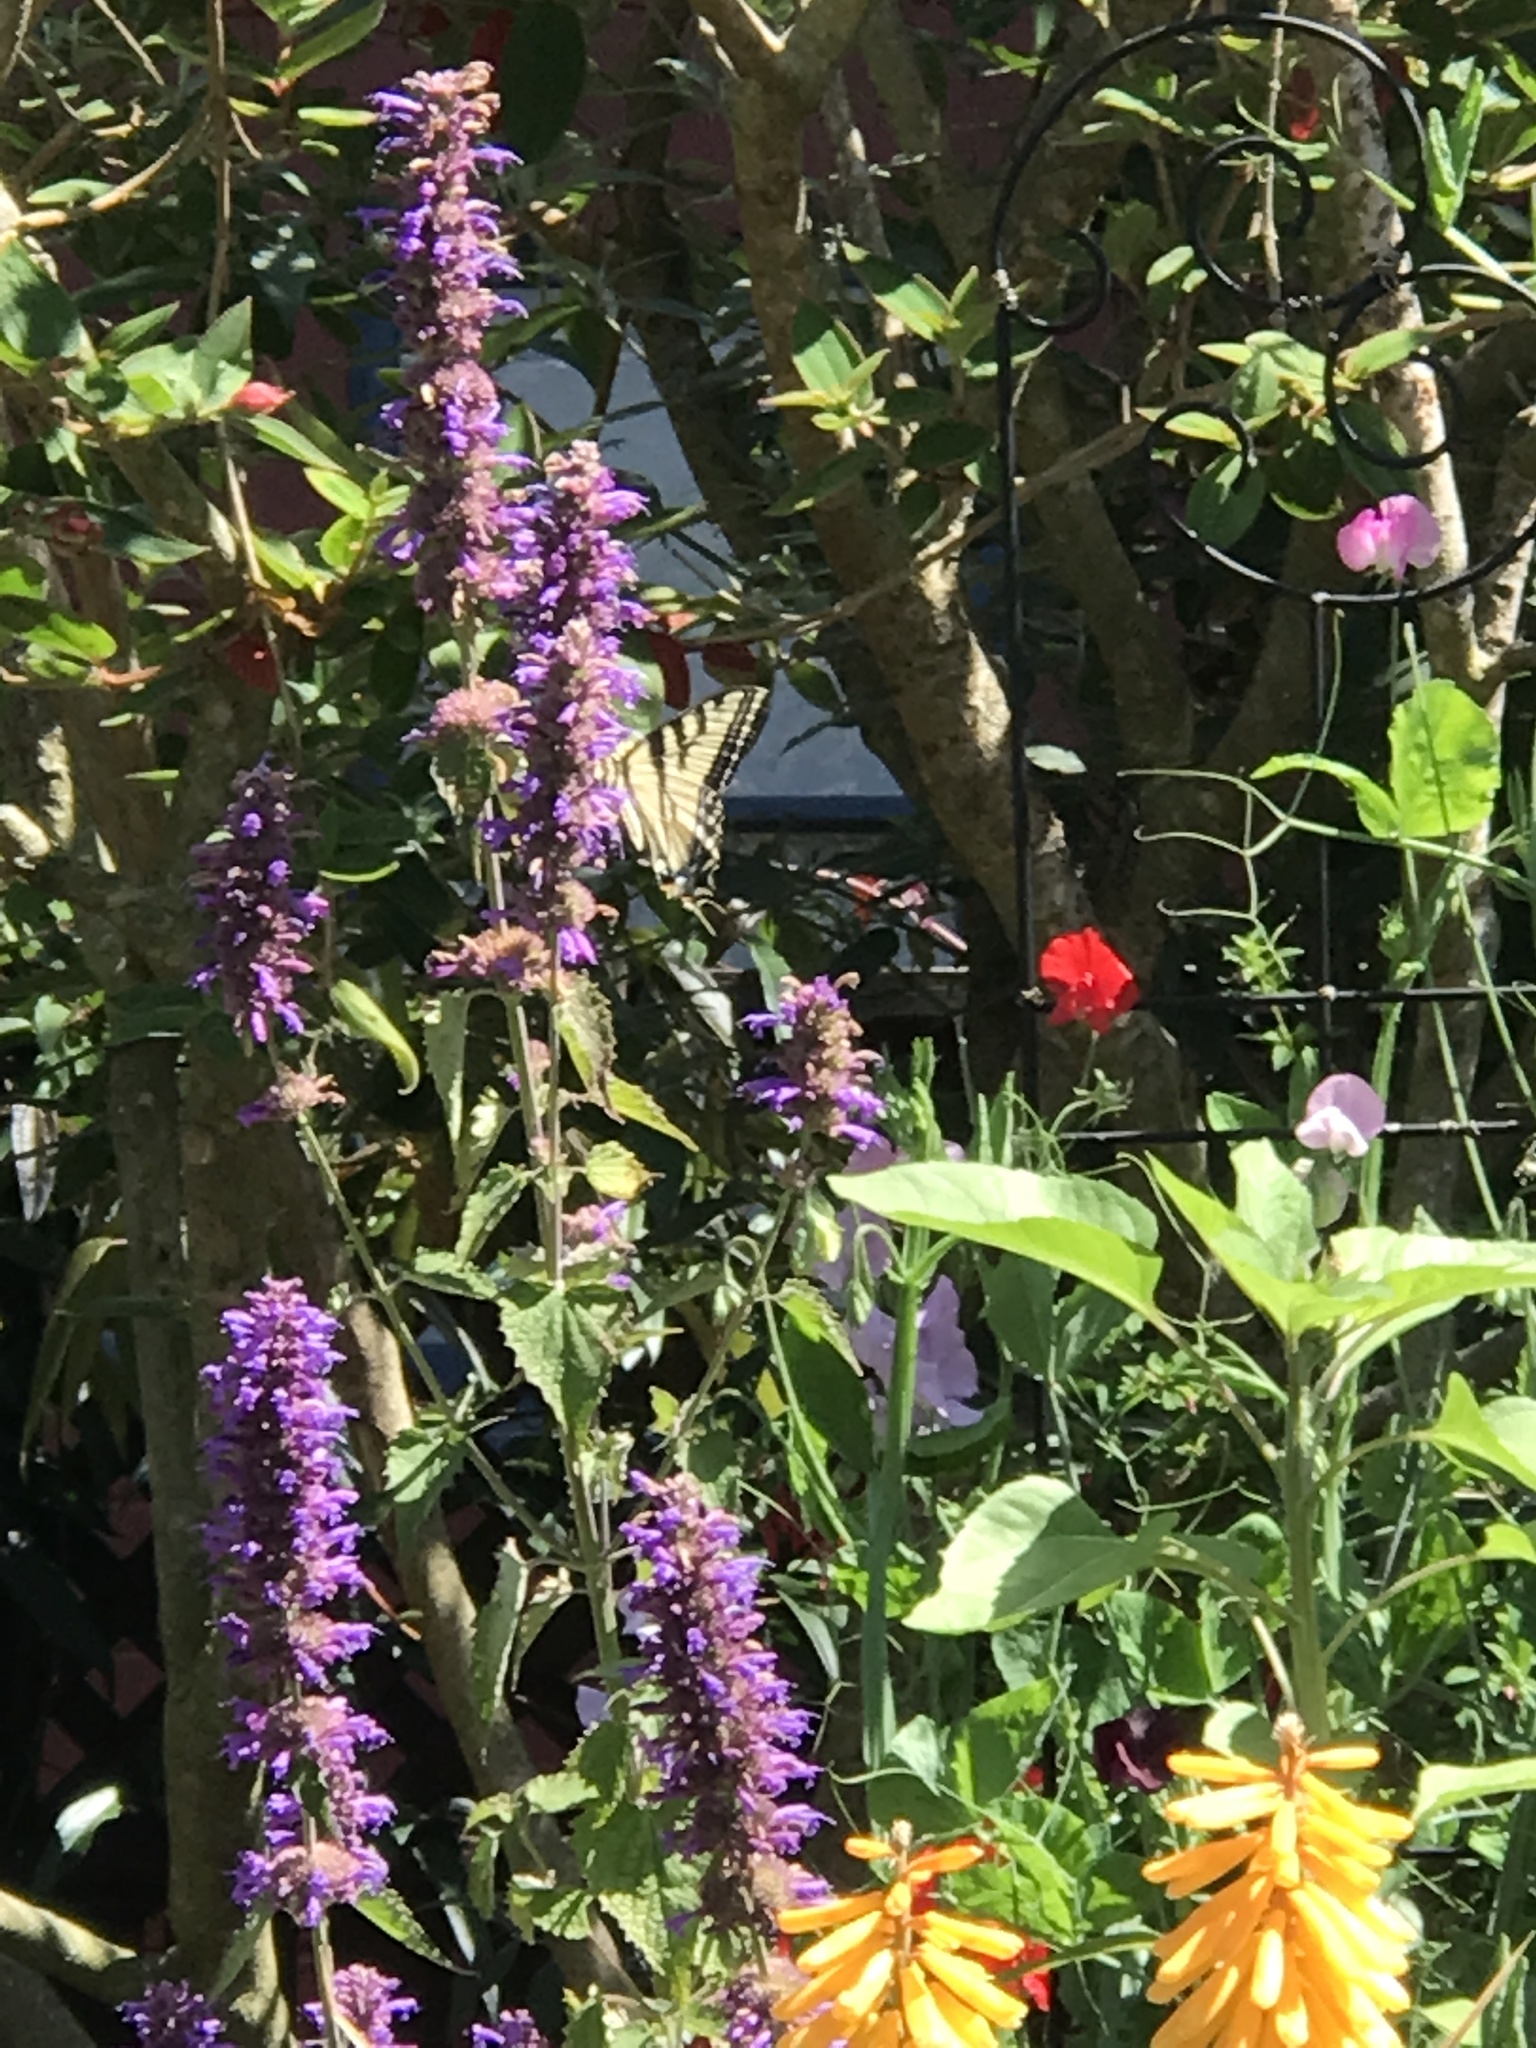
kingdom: Animalia
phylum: Arthropoda
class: Insecta
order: Lepidoptera
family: Papilionidae
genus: Papilio
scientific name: Papilio rutulus
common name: Western tiger swallowtail
